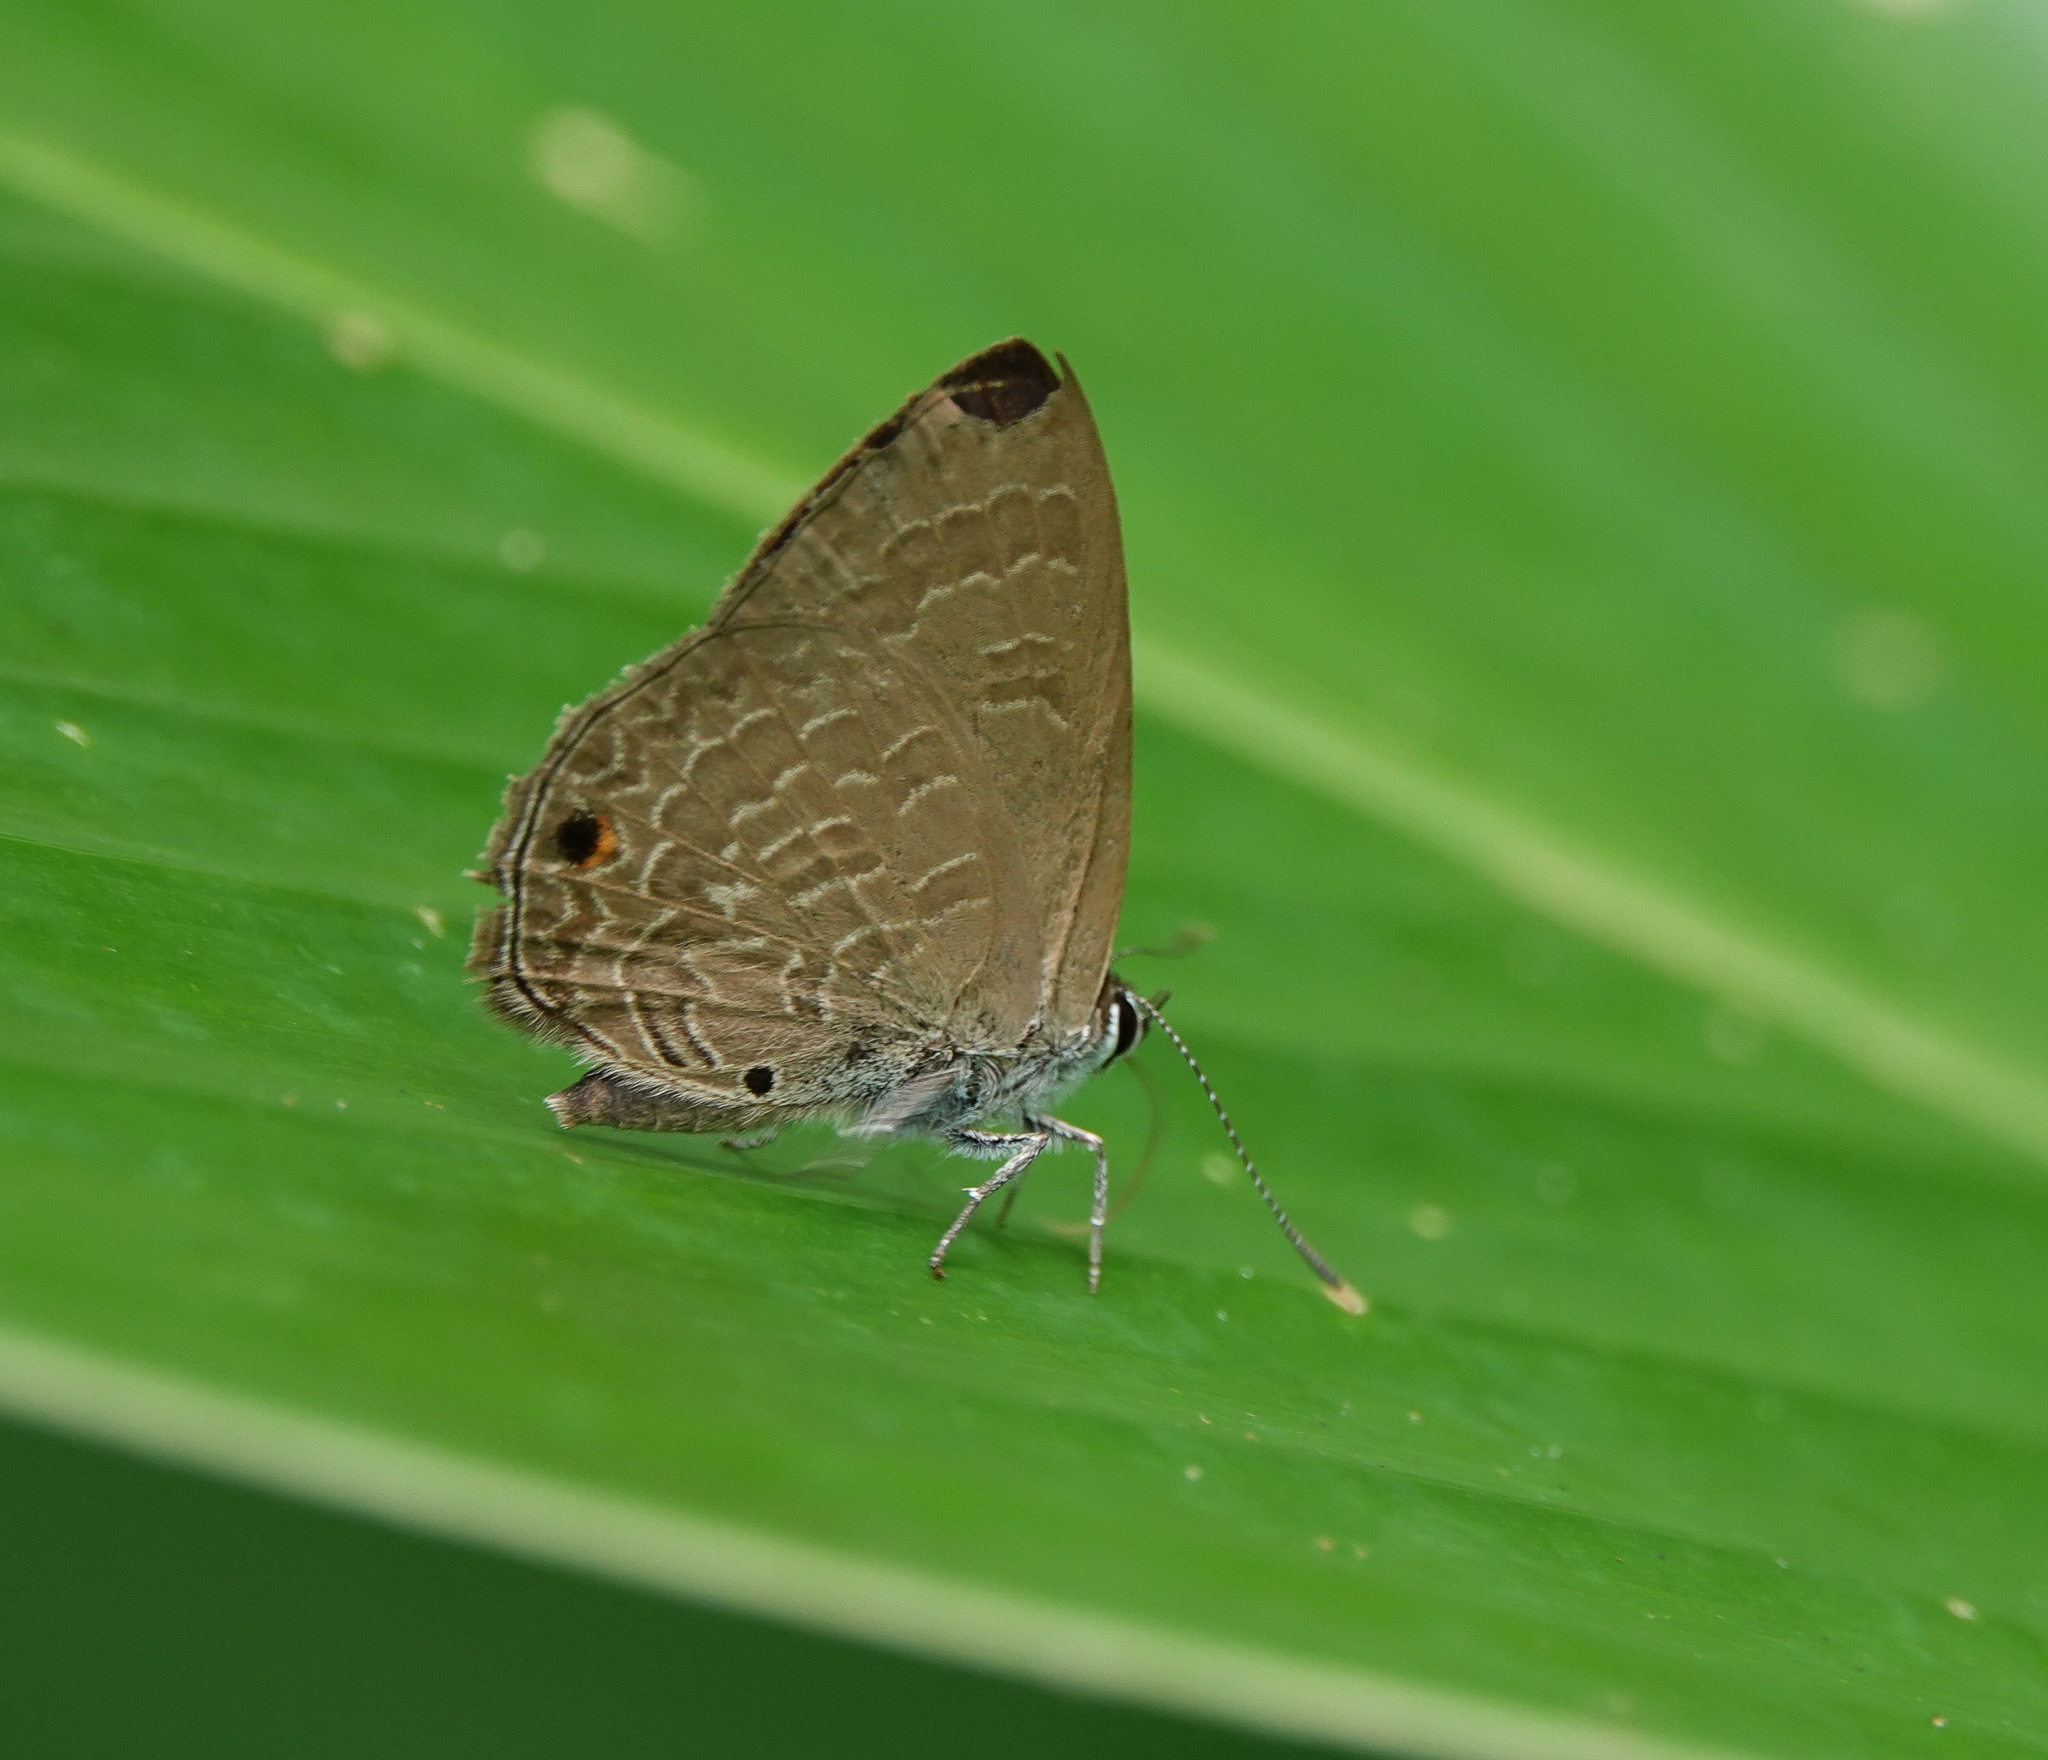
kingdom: Animalia
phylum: Arthropoda
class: Insecta
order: Lepidoptera
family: Lycaenidae
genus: Anthene
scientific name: Anthene emolus
